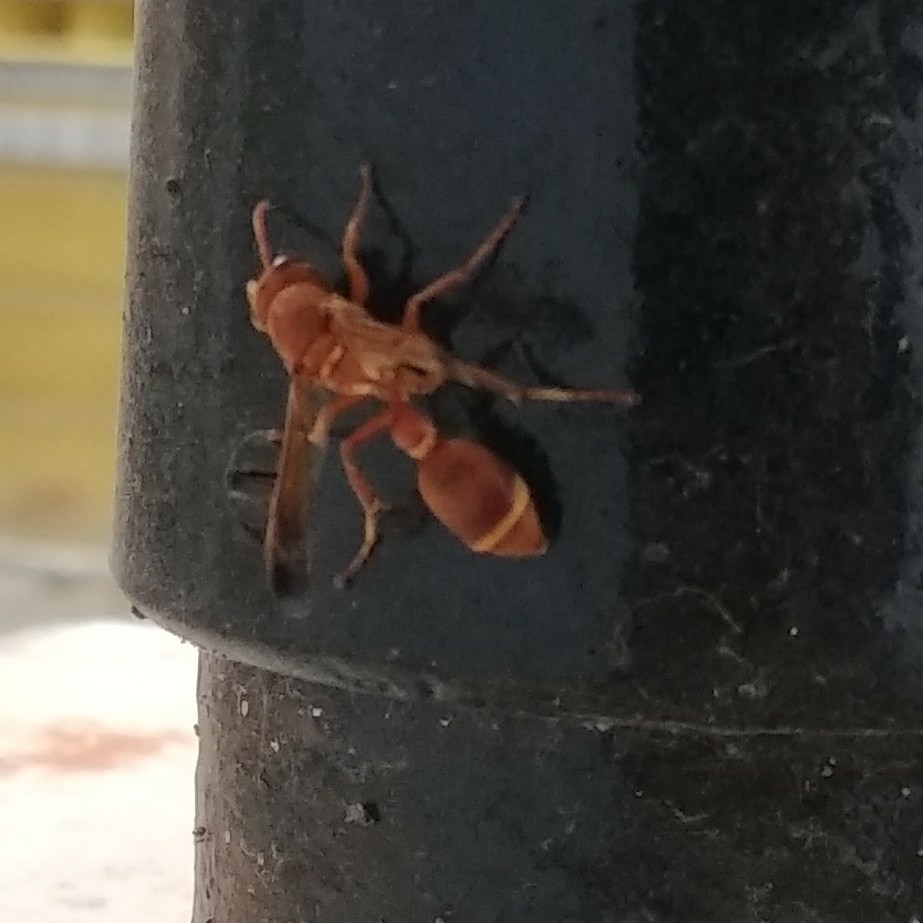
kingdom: Animalia
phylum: Arthropoda
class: Insecta
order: Hymenoptera
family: Vespidae
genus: Ropalidia
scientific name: Ropalidia marginata
